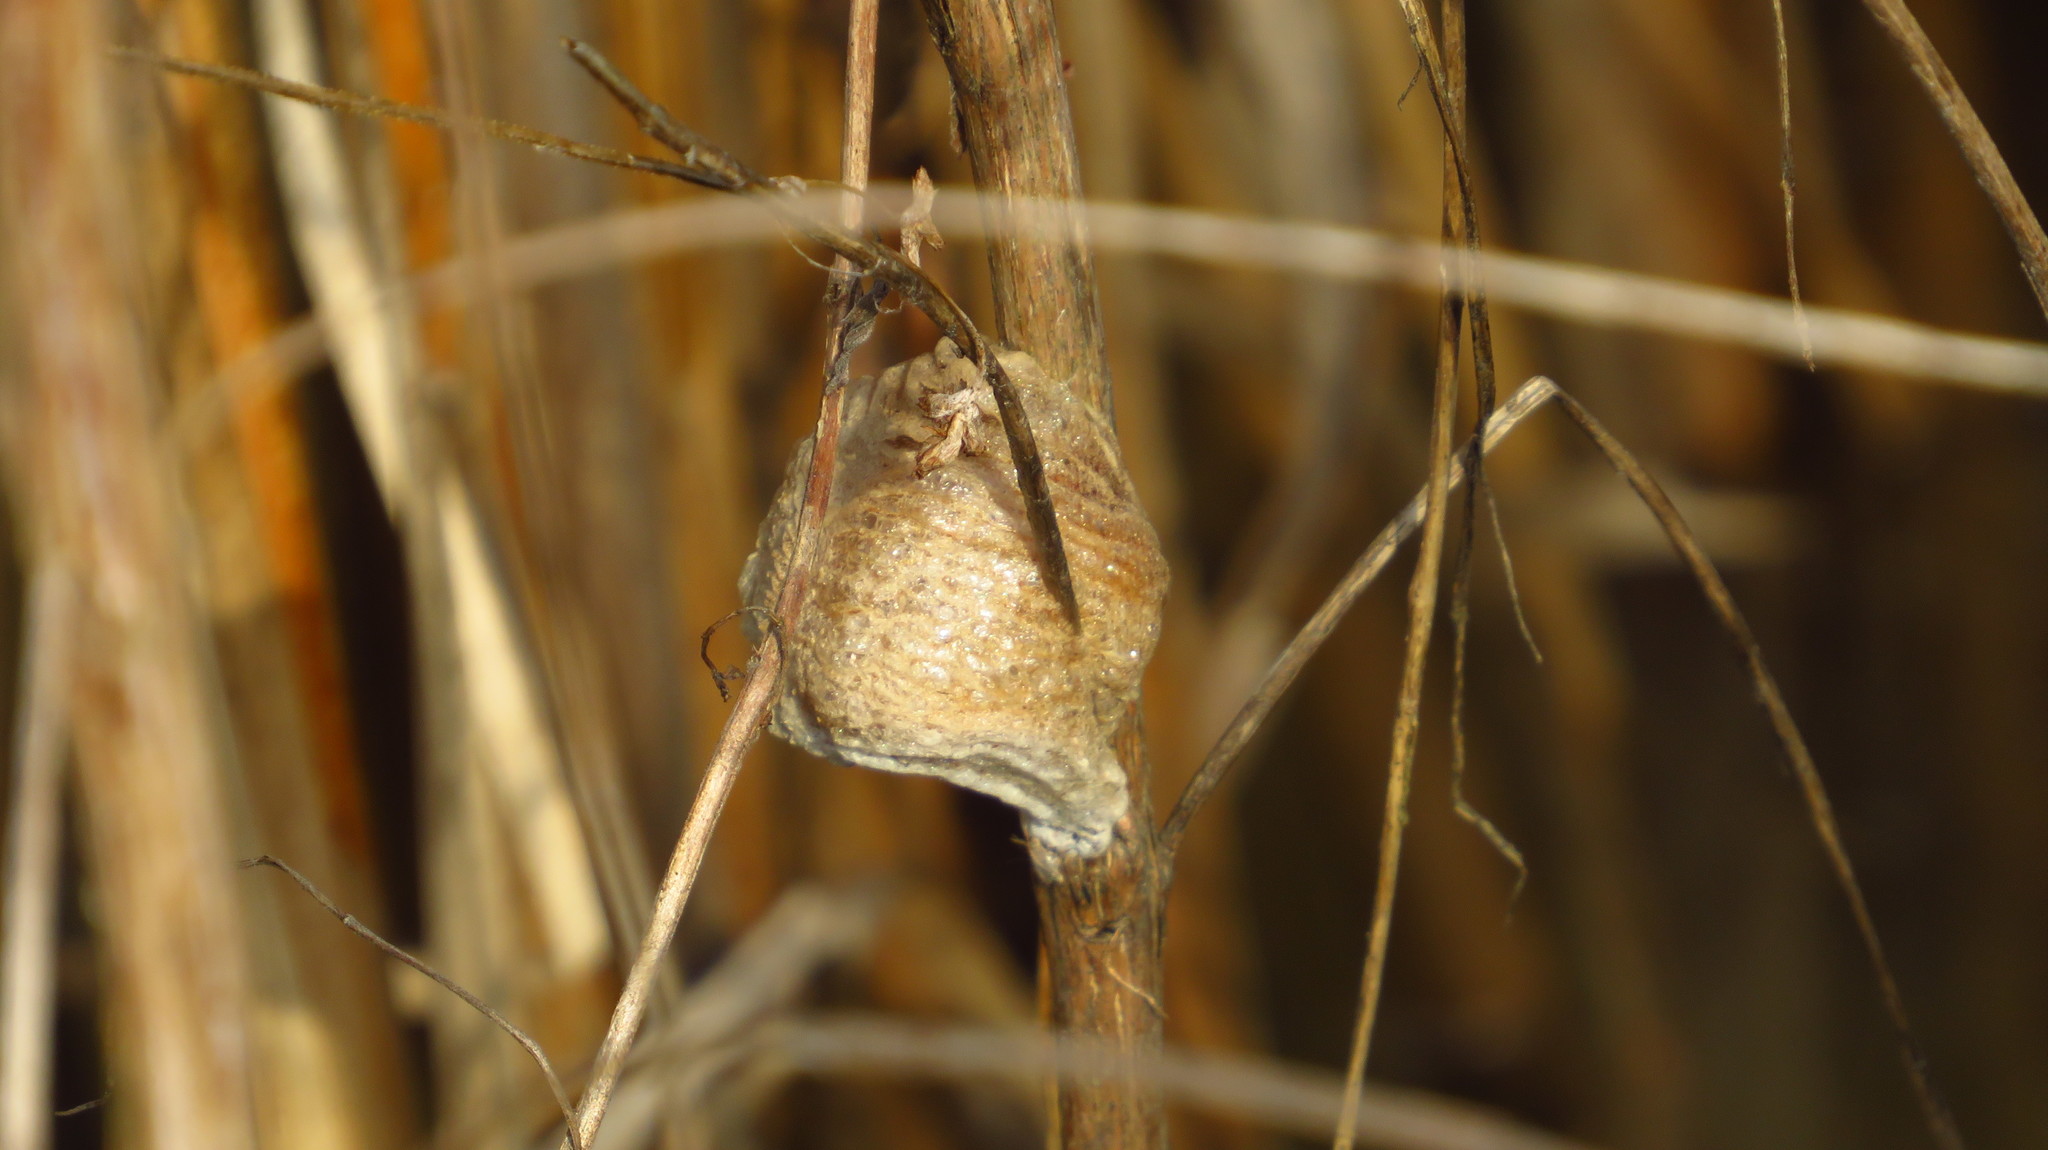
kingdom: Animalia
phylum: Arthropoda
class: Insecta
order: Mantodea
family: Mantidae
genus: Tenodera
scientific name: Tenodera sinensis
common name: Chinese mantis
